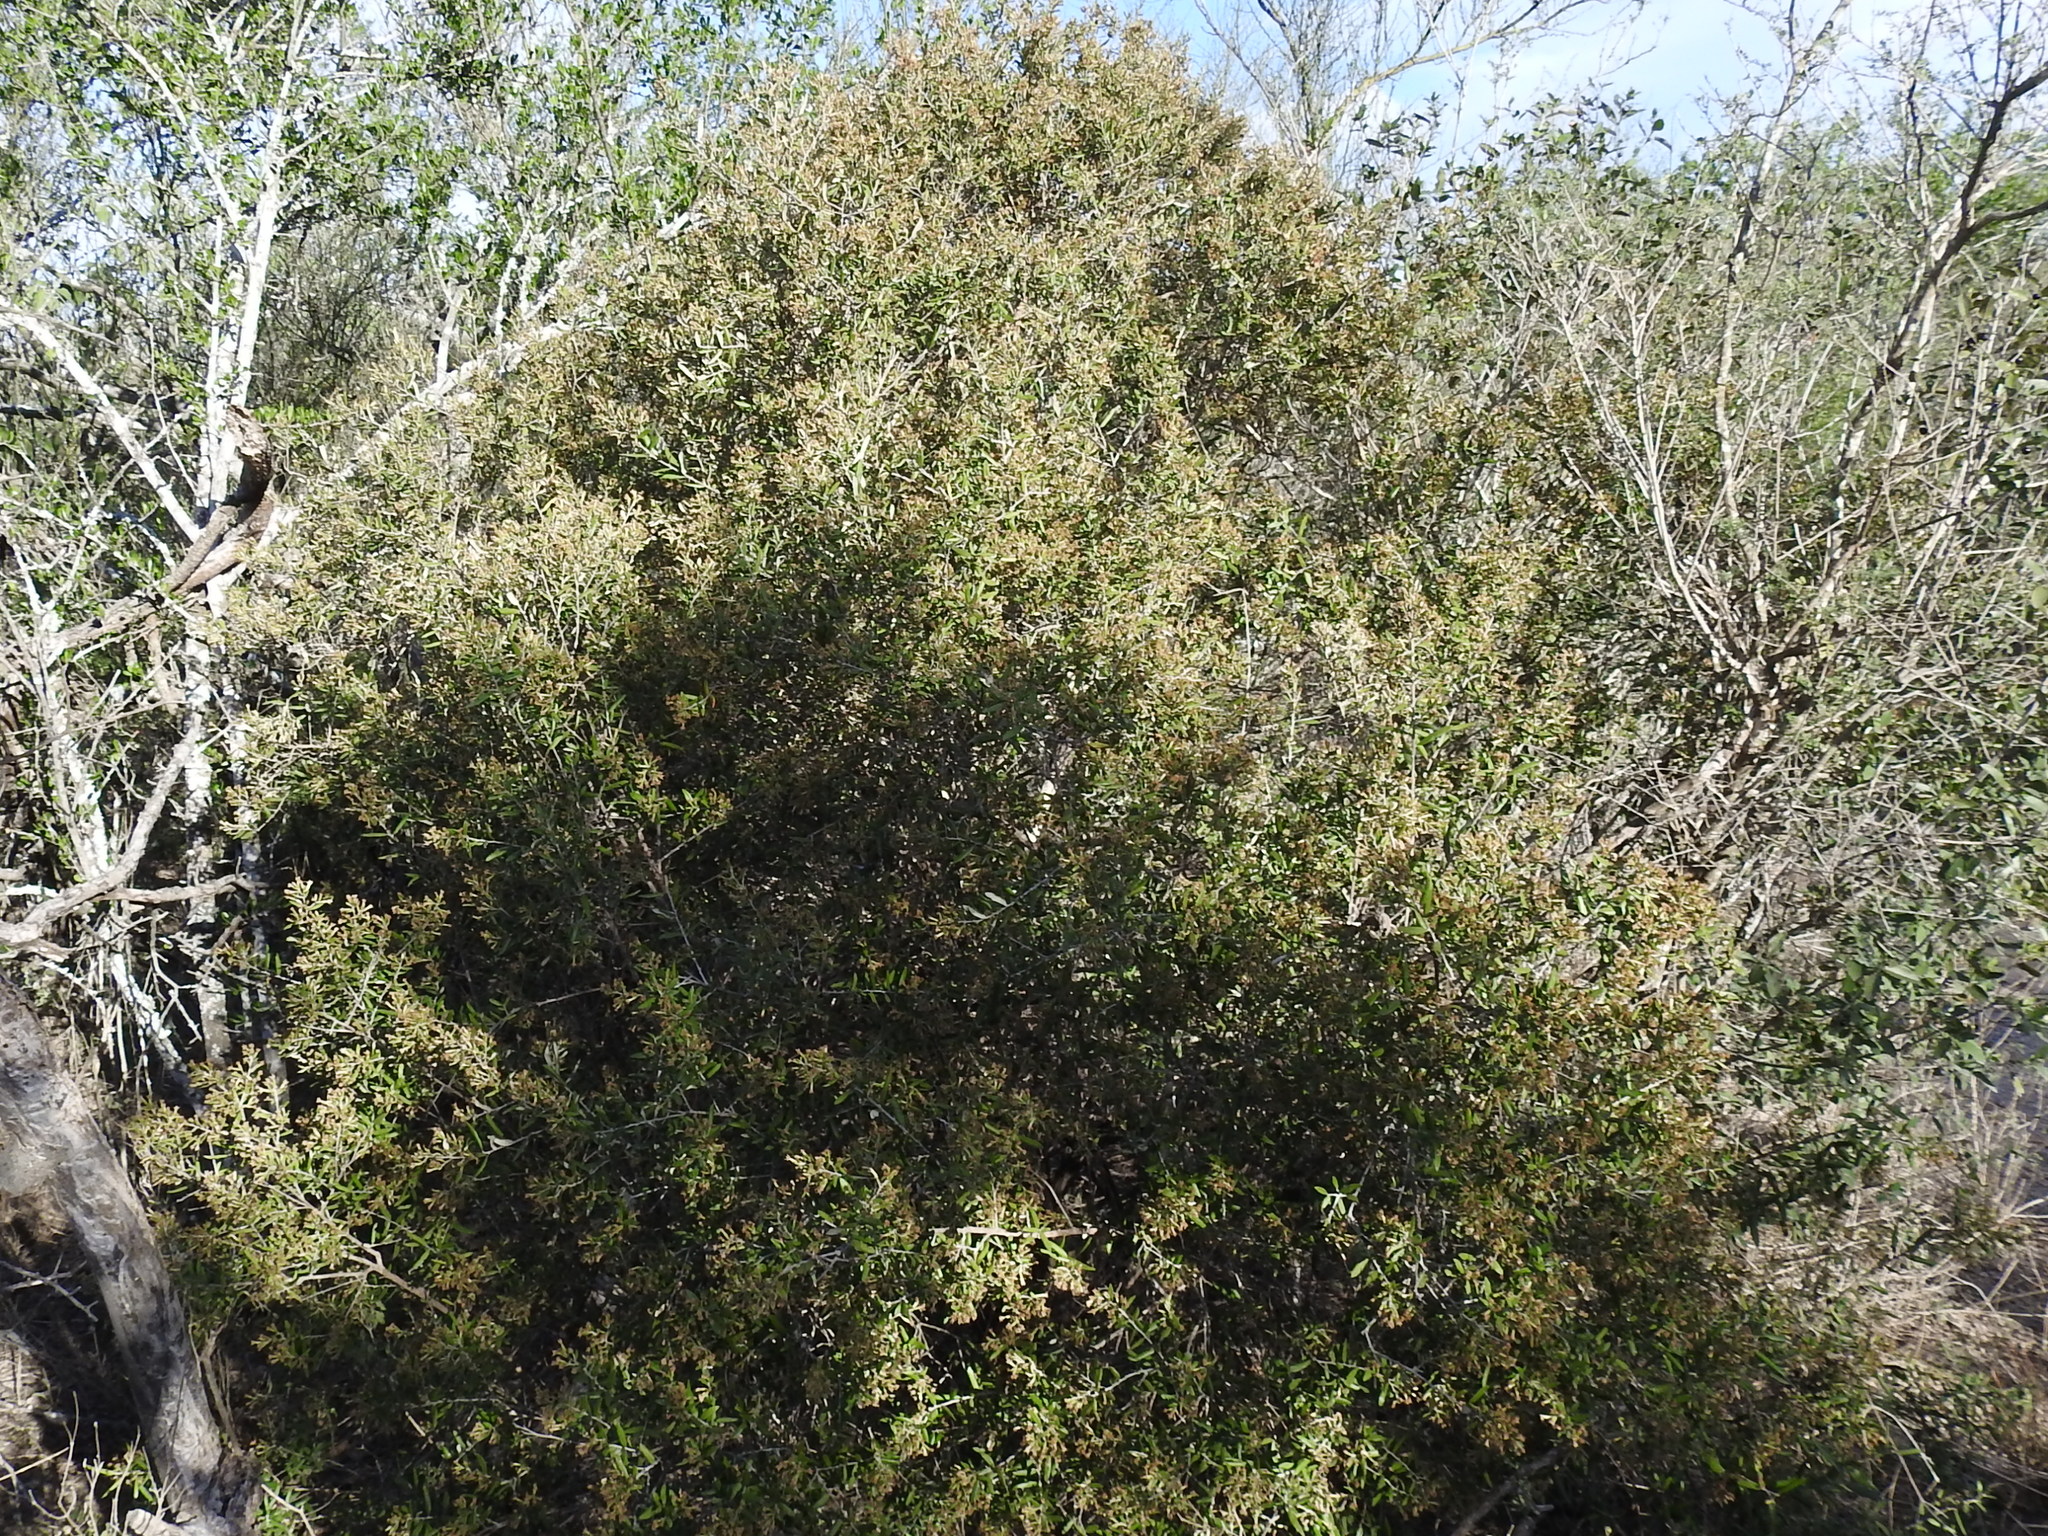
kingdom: Plantae
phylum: Tracheophyta
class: Magnoliopsida
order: Asterales
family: Asteraceae
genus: Nahuatlea
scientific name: Nahuatlea hypoleuca
